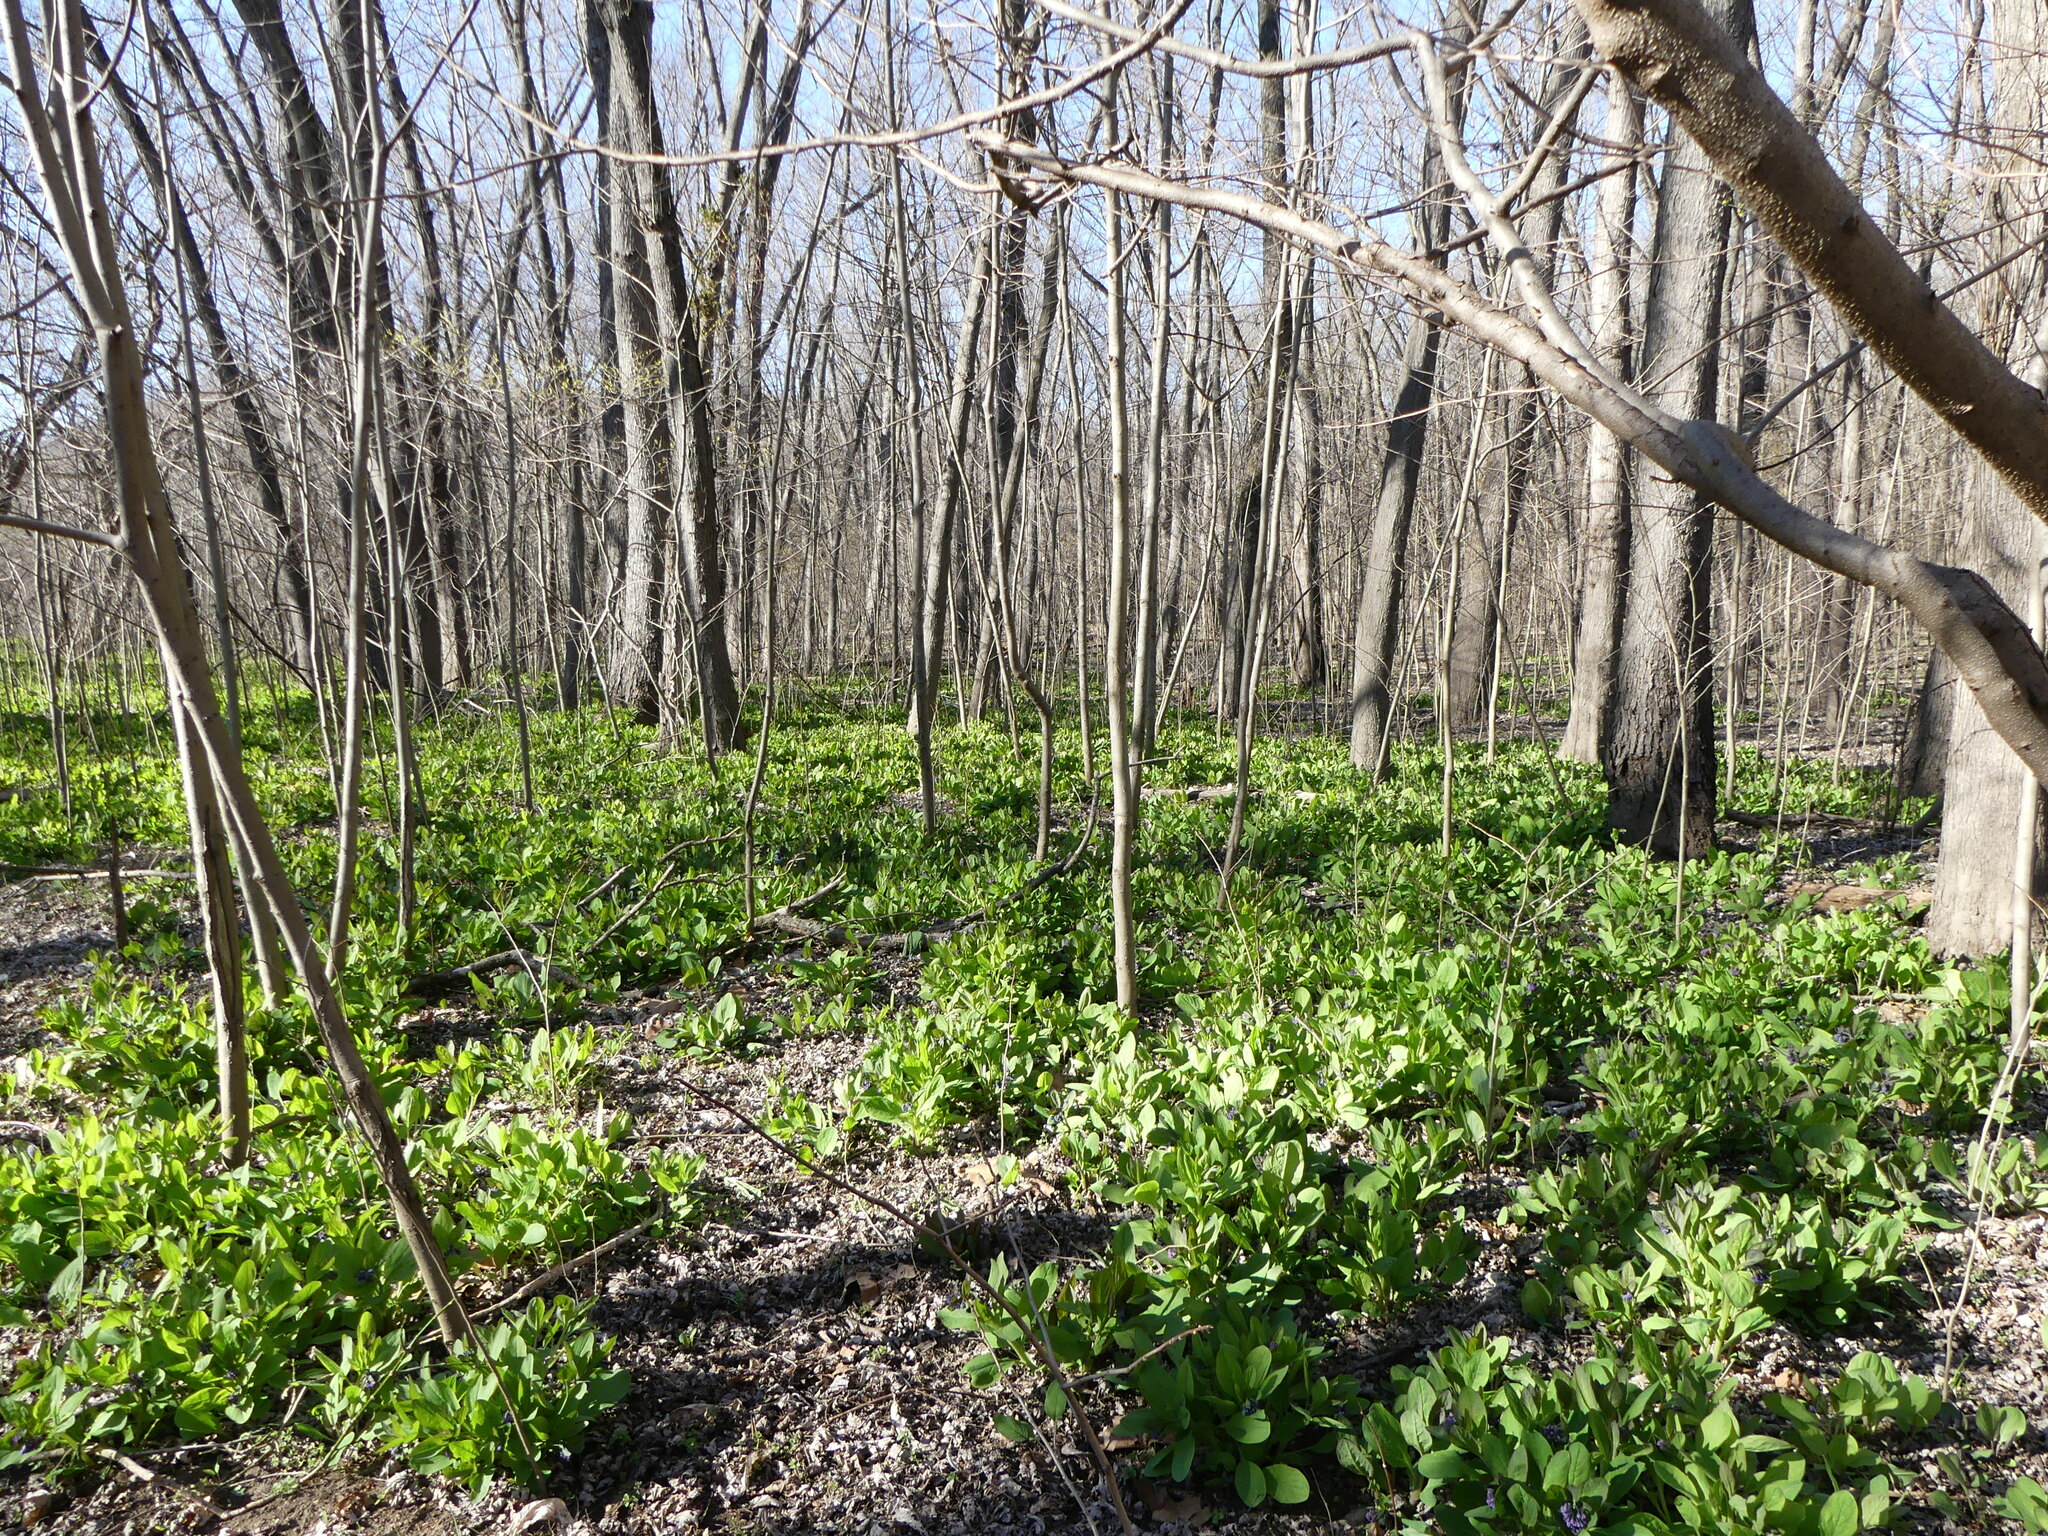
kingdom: Plantae
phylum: Tracheophyta
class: Magnoliopsida
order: Boraginales
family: Boraginaceae
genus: Mertensia
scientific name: Mertensia virginica
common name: Virginia bluebells
